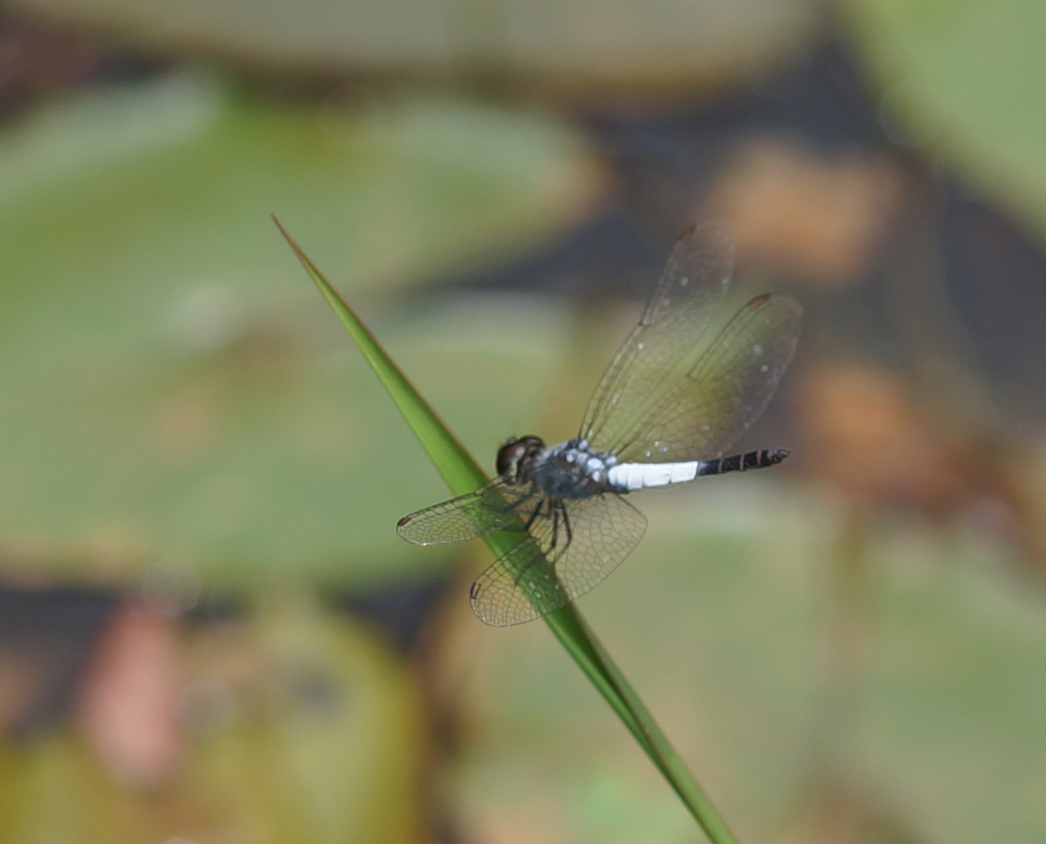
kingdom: Animalia
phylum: Arthropoda
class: Insecta
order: Odonata
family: Libellulidae
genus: Brachydiplax
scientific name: Brachydiplax farinosa
